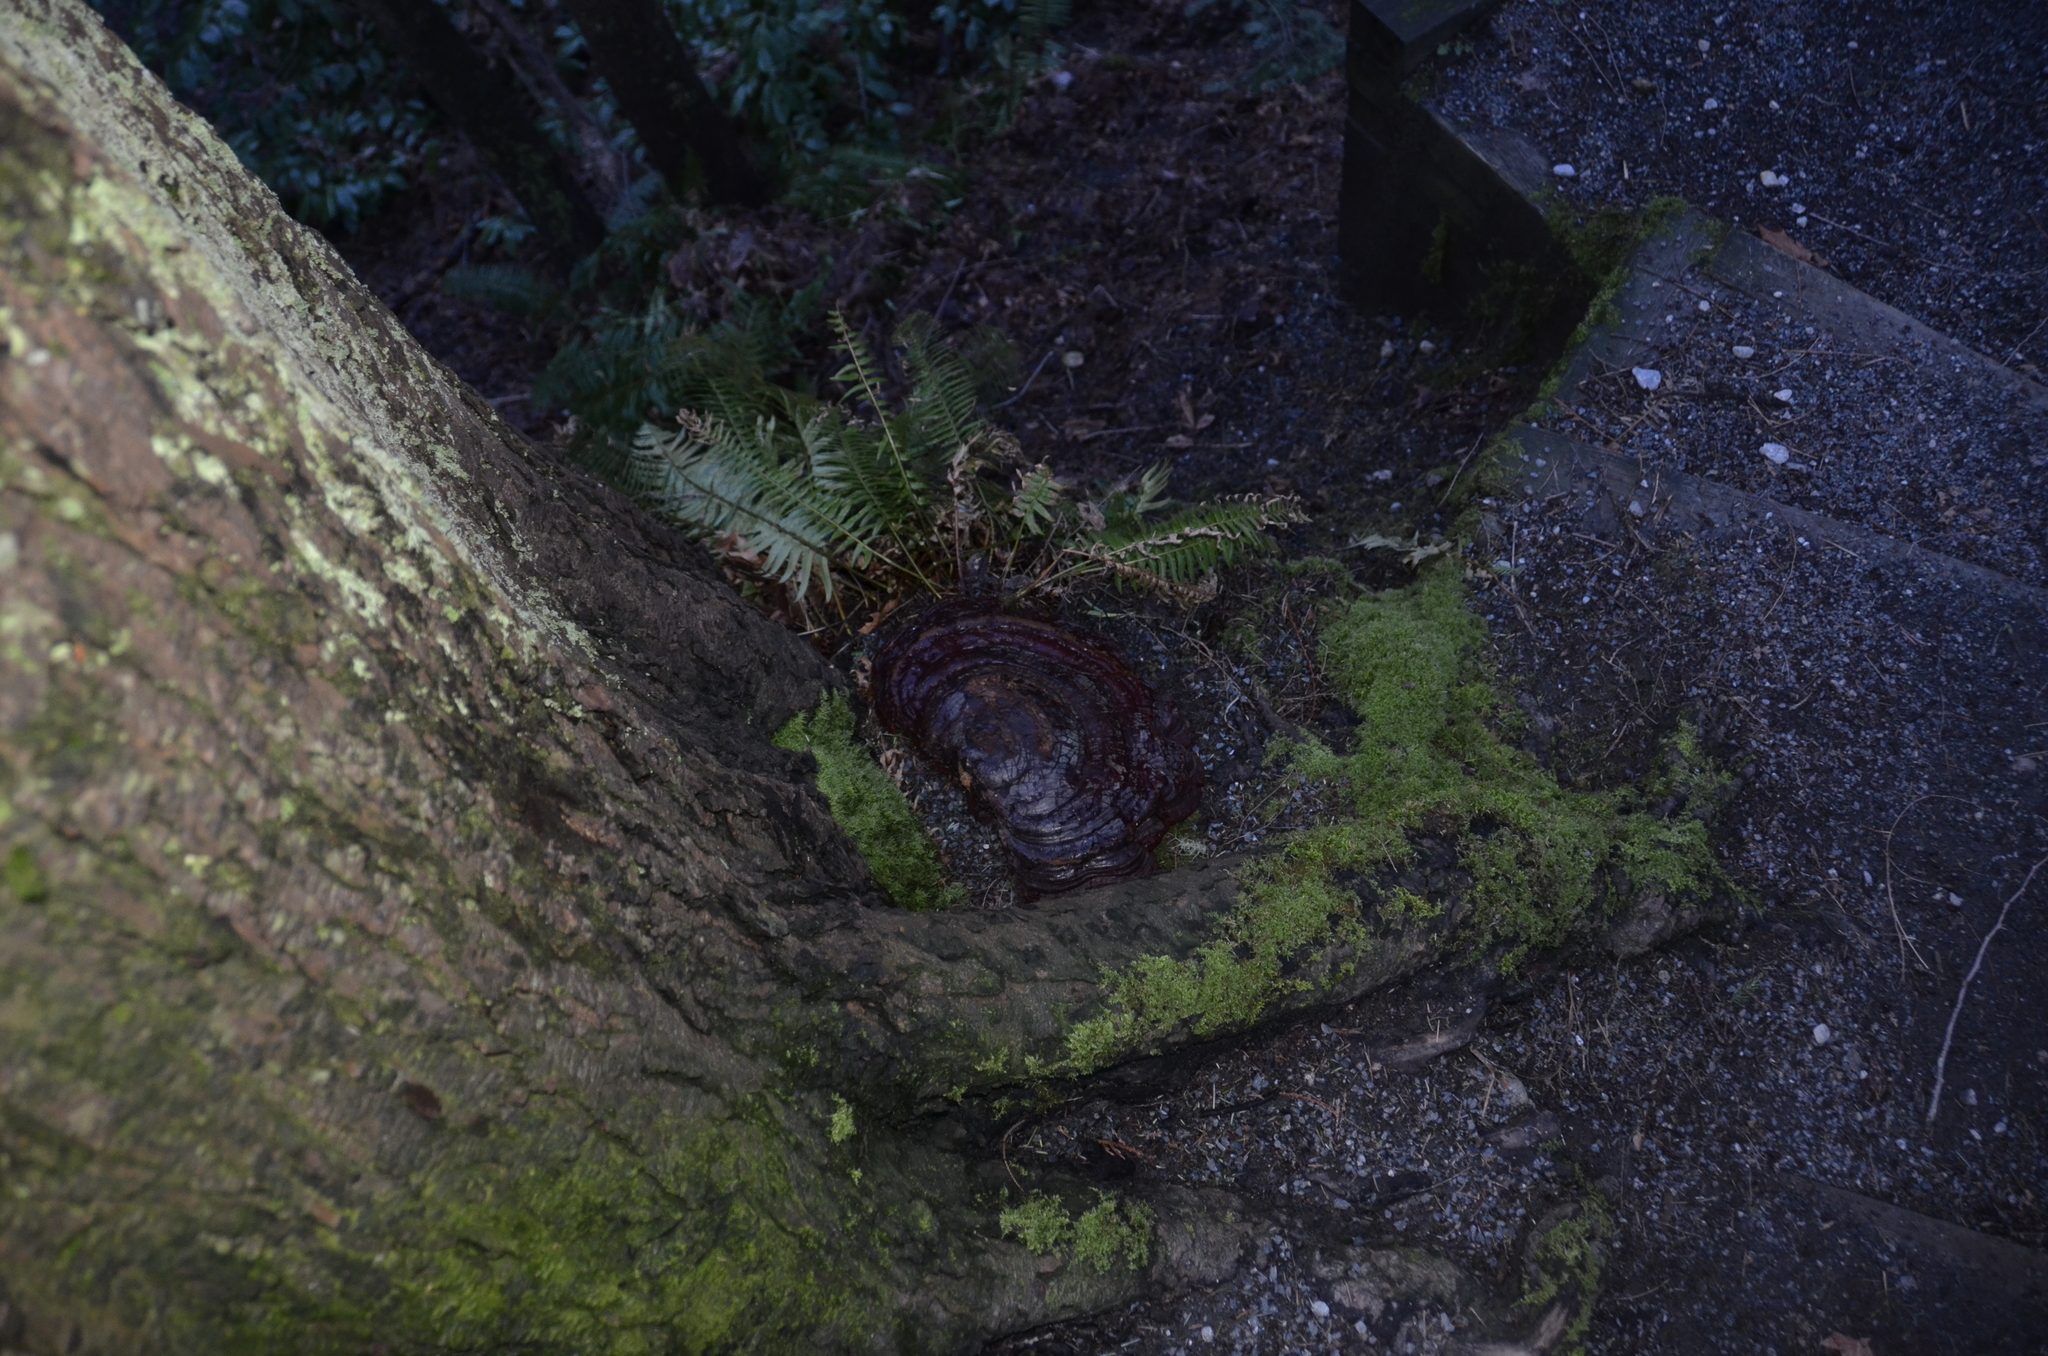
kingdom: Fungi
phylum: Basidiomycota
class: Agaricomycetes
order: Polyporales
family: Polyporaceae
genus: Ganoderma
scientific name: Ganoderma oregonense
